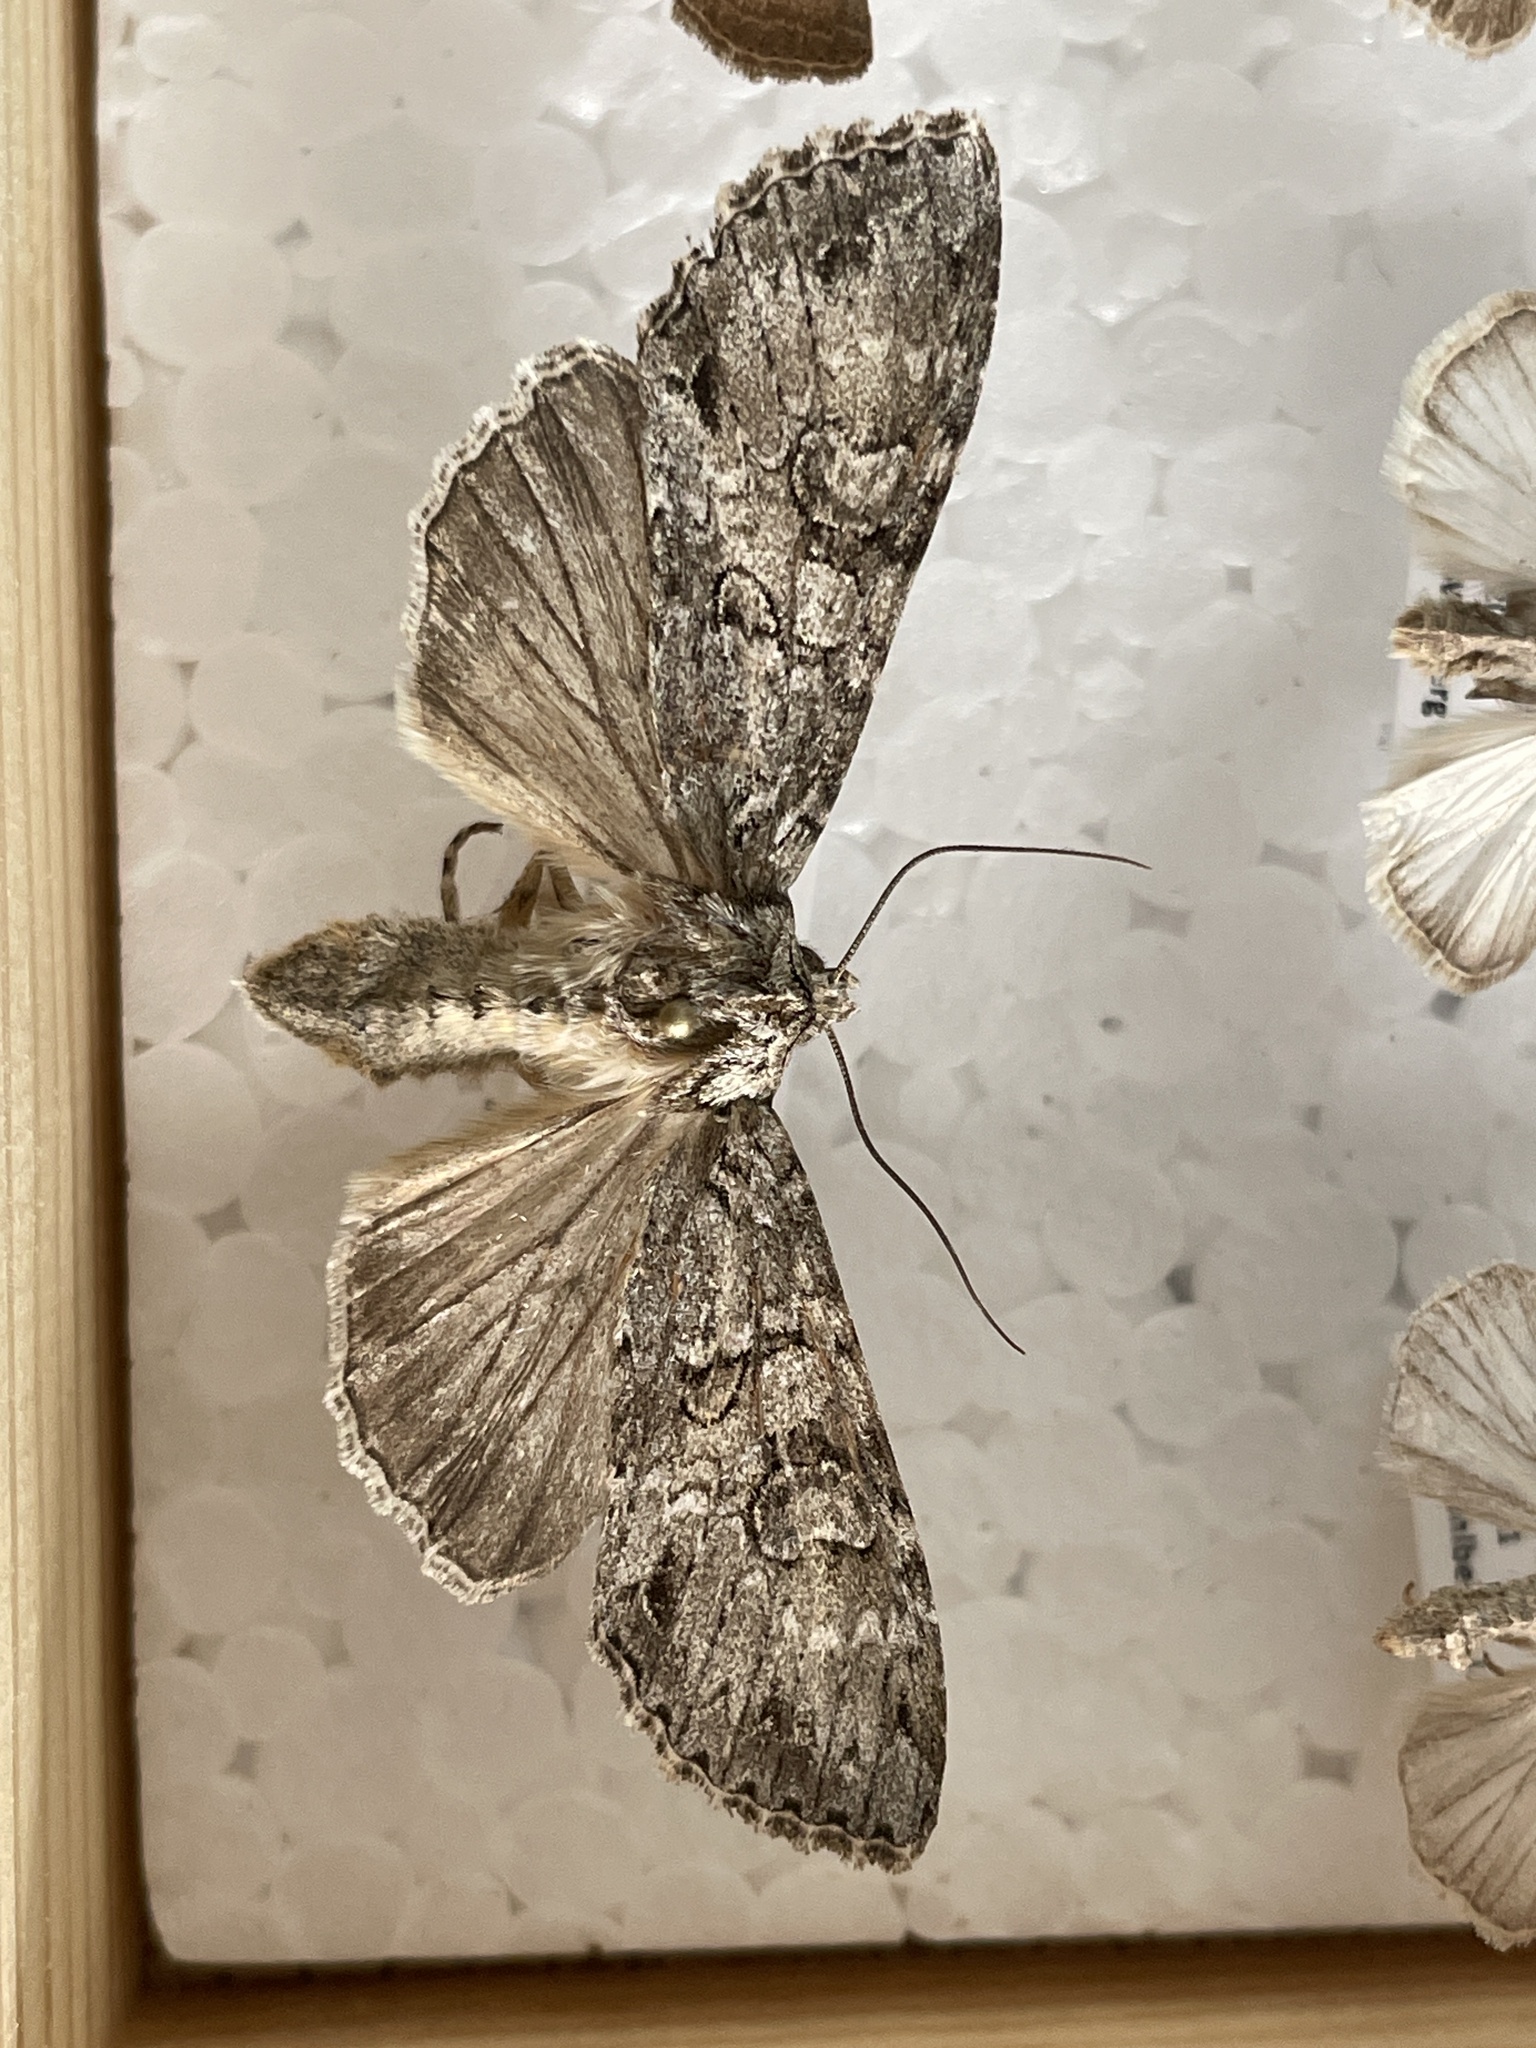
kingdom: Animalia
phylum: Arthropoda
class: Insecta
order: Lepidoptera
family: Noctuidae
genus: Polia
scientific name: Polia nebulosa
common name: Grey arches
